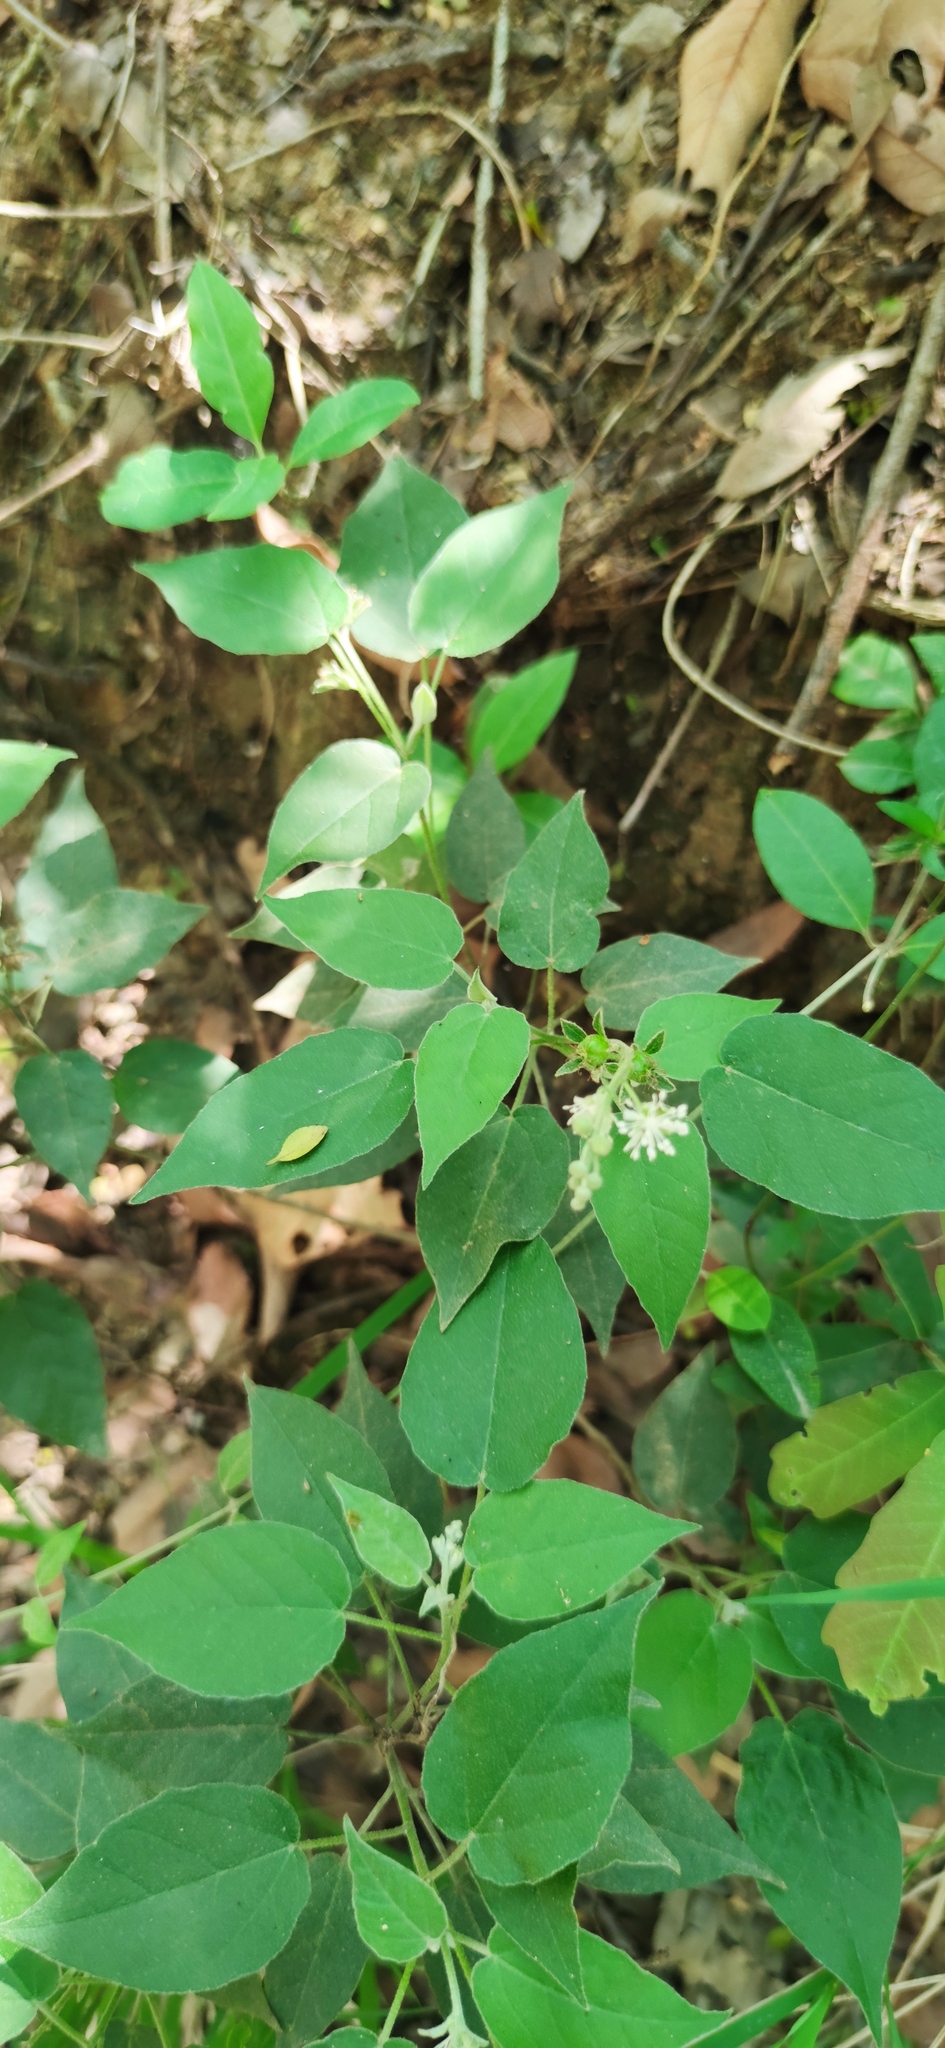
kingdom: Plantae
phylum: Tracheophyta
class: Magnoliopsida
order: Malpighiales
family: Euphorbiaceae
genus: Croton
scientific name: Croton virletianus
